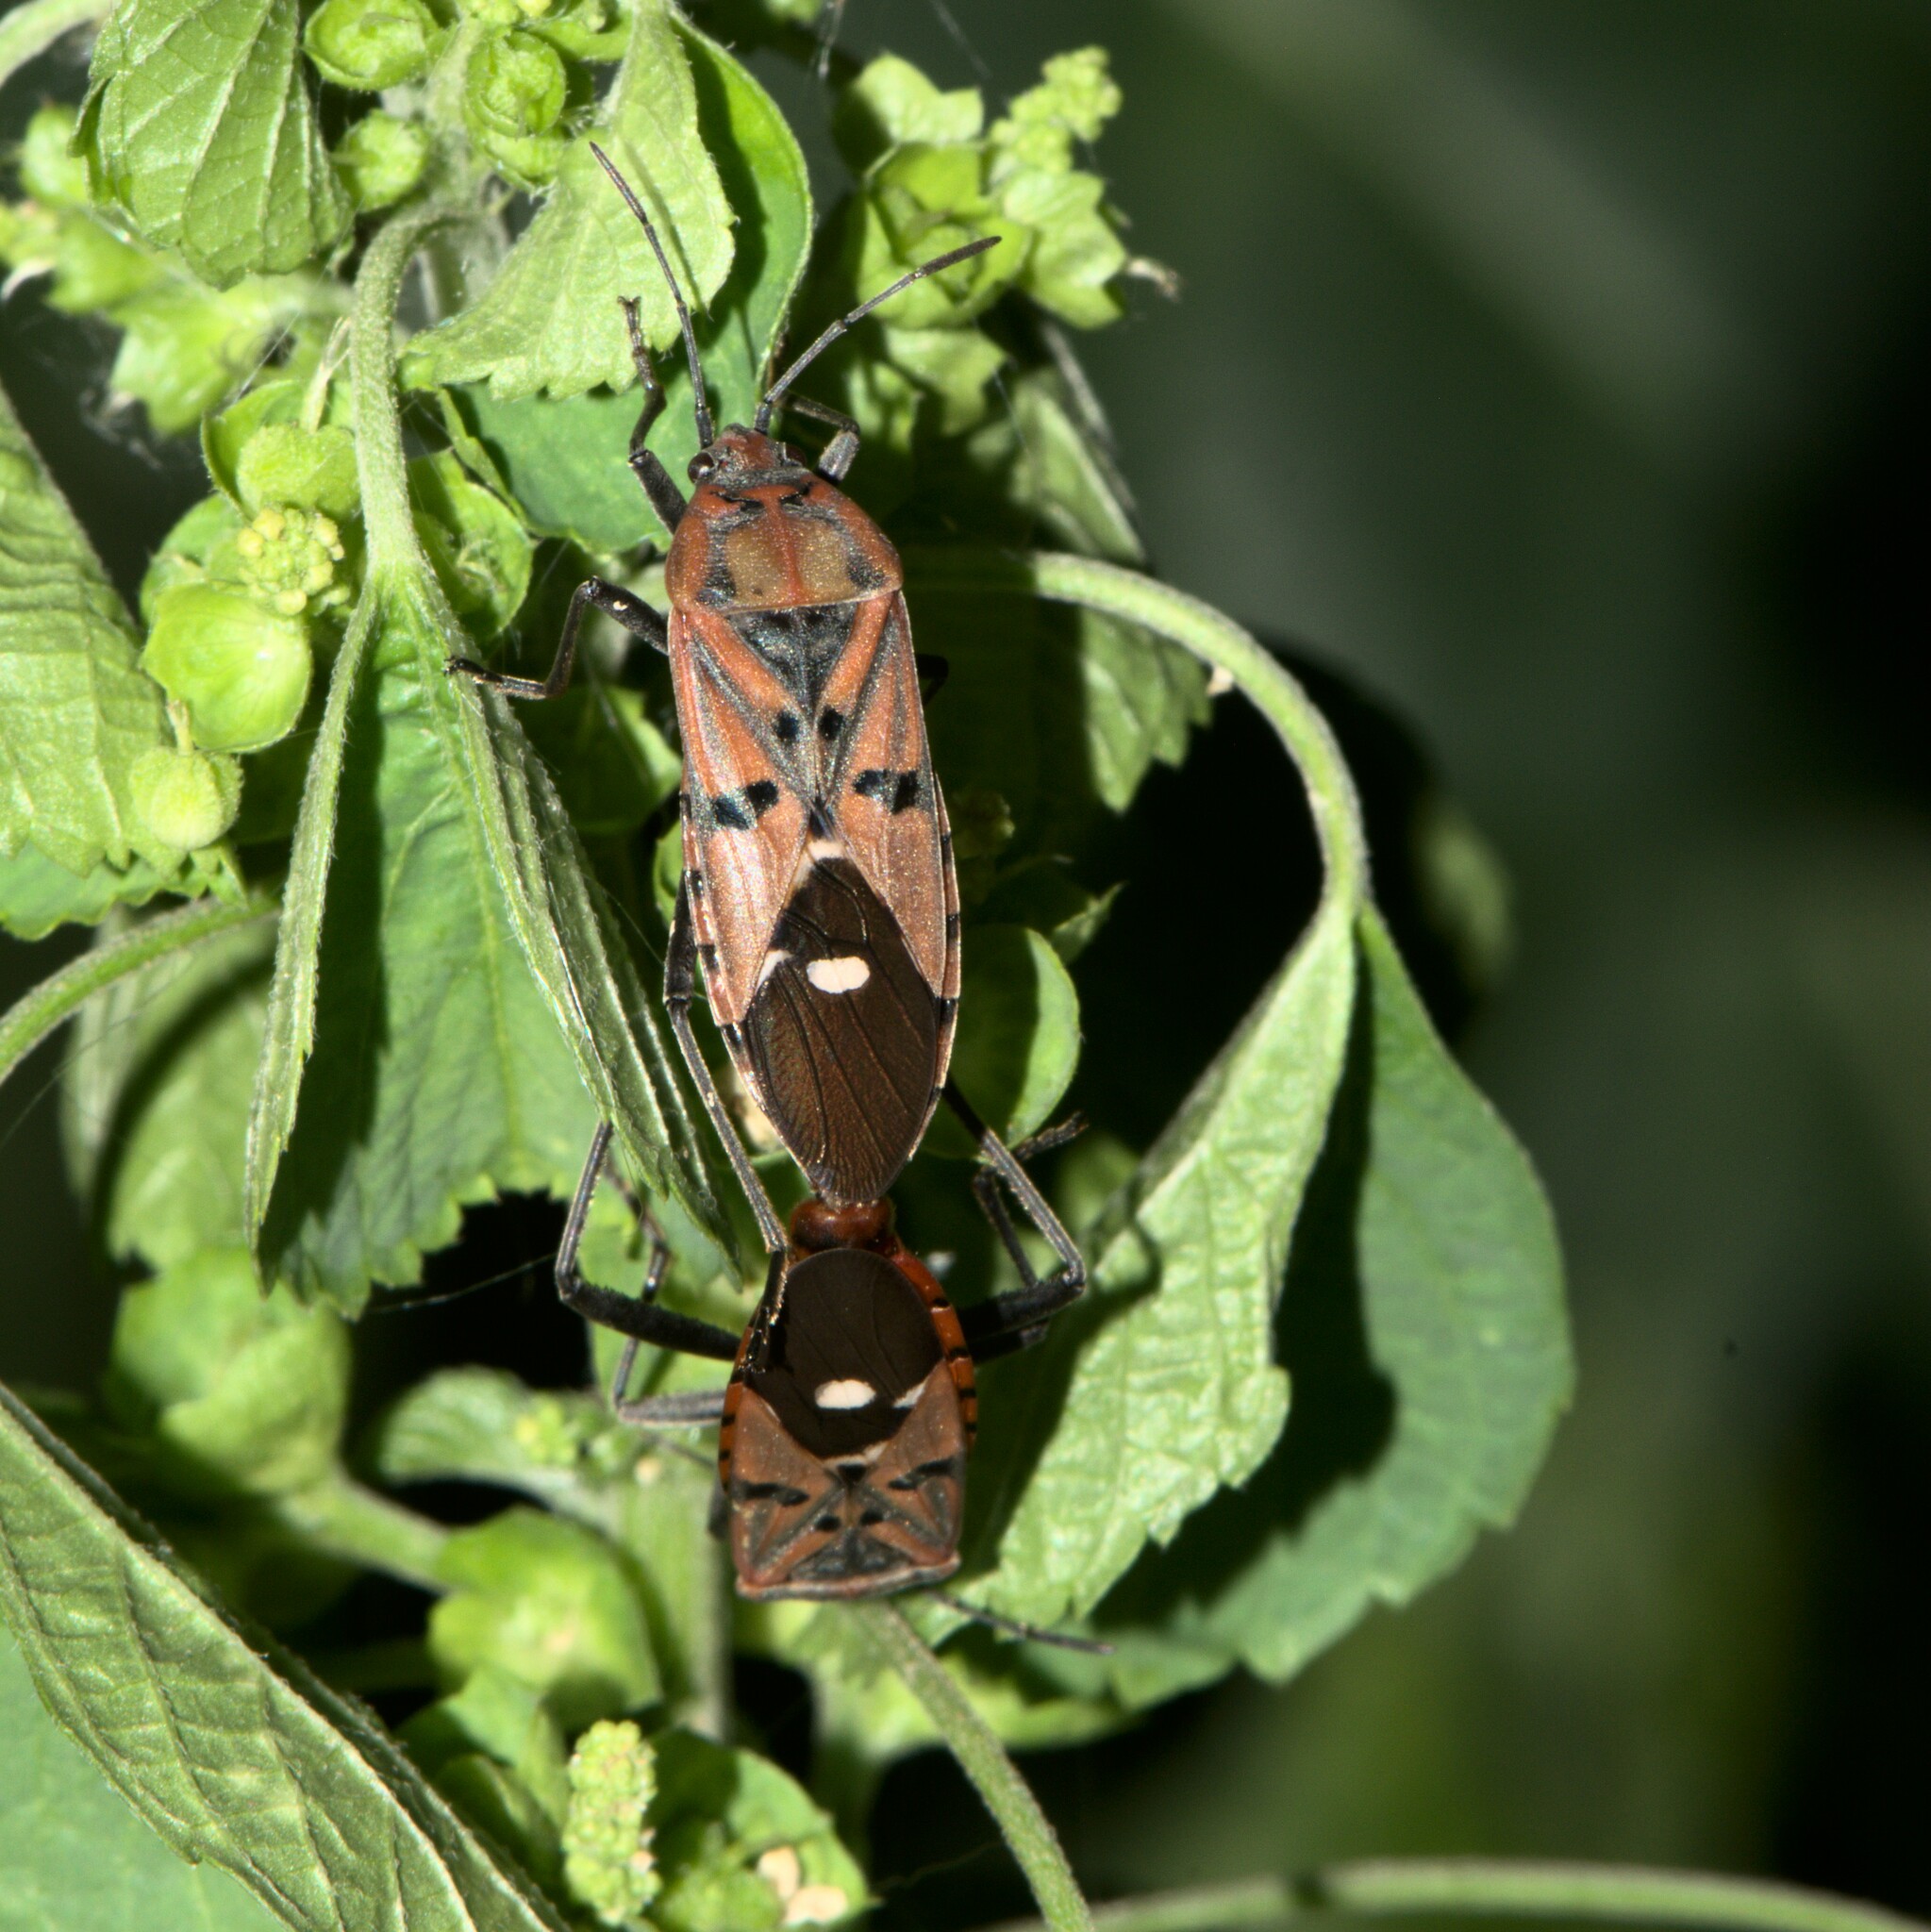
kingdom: Animalia
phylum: Arthropoda
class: Insecta
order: Hemiptera
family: Lygaeidae
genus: Spilostethus
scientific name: Spilostethus pandurus
